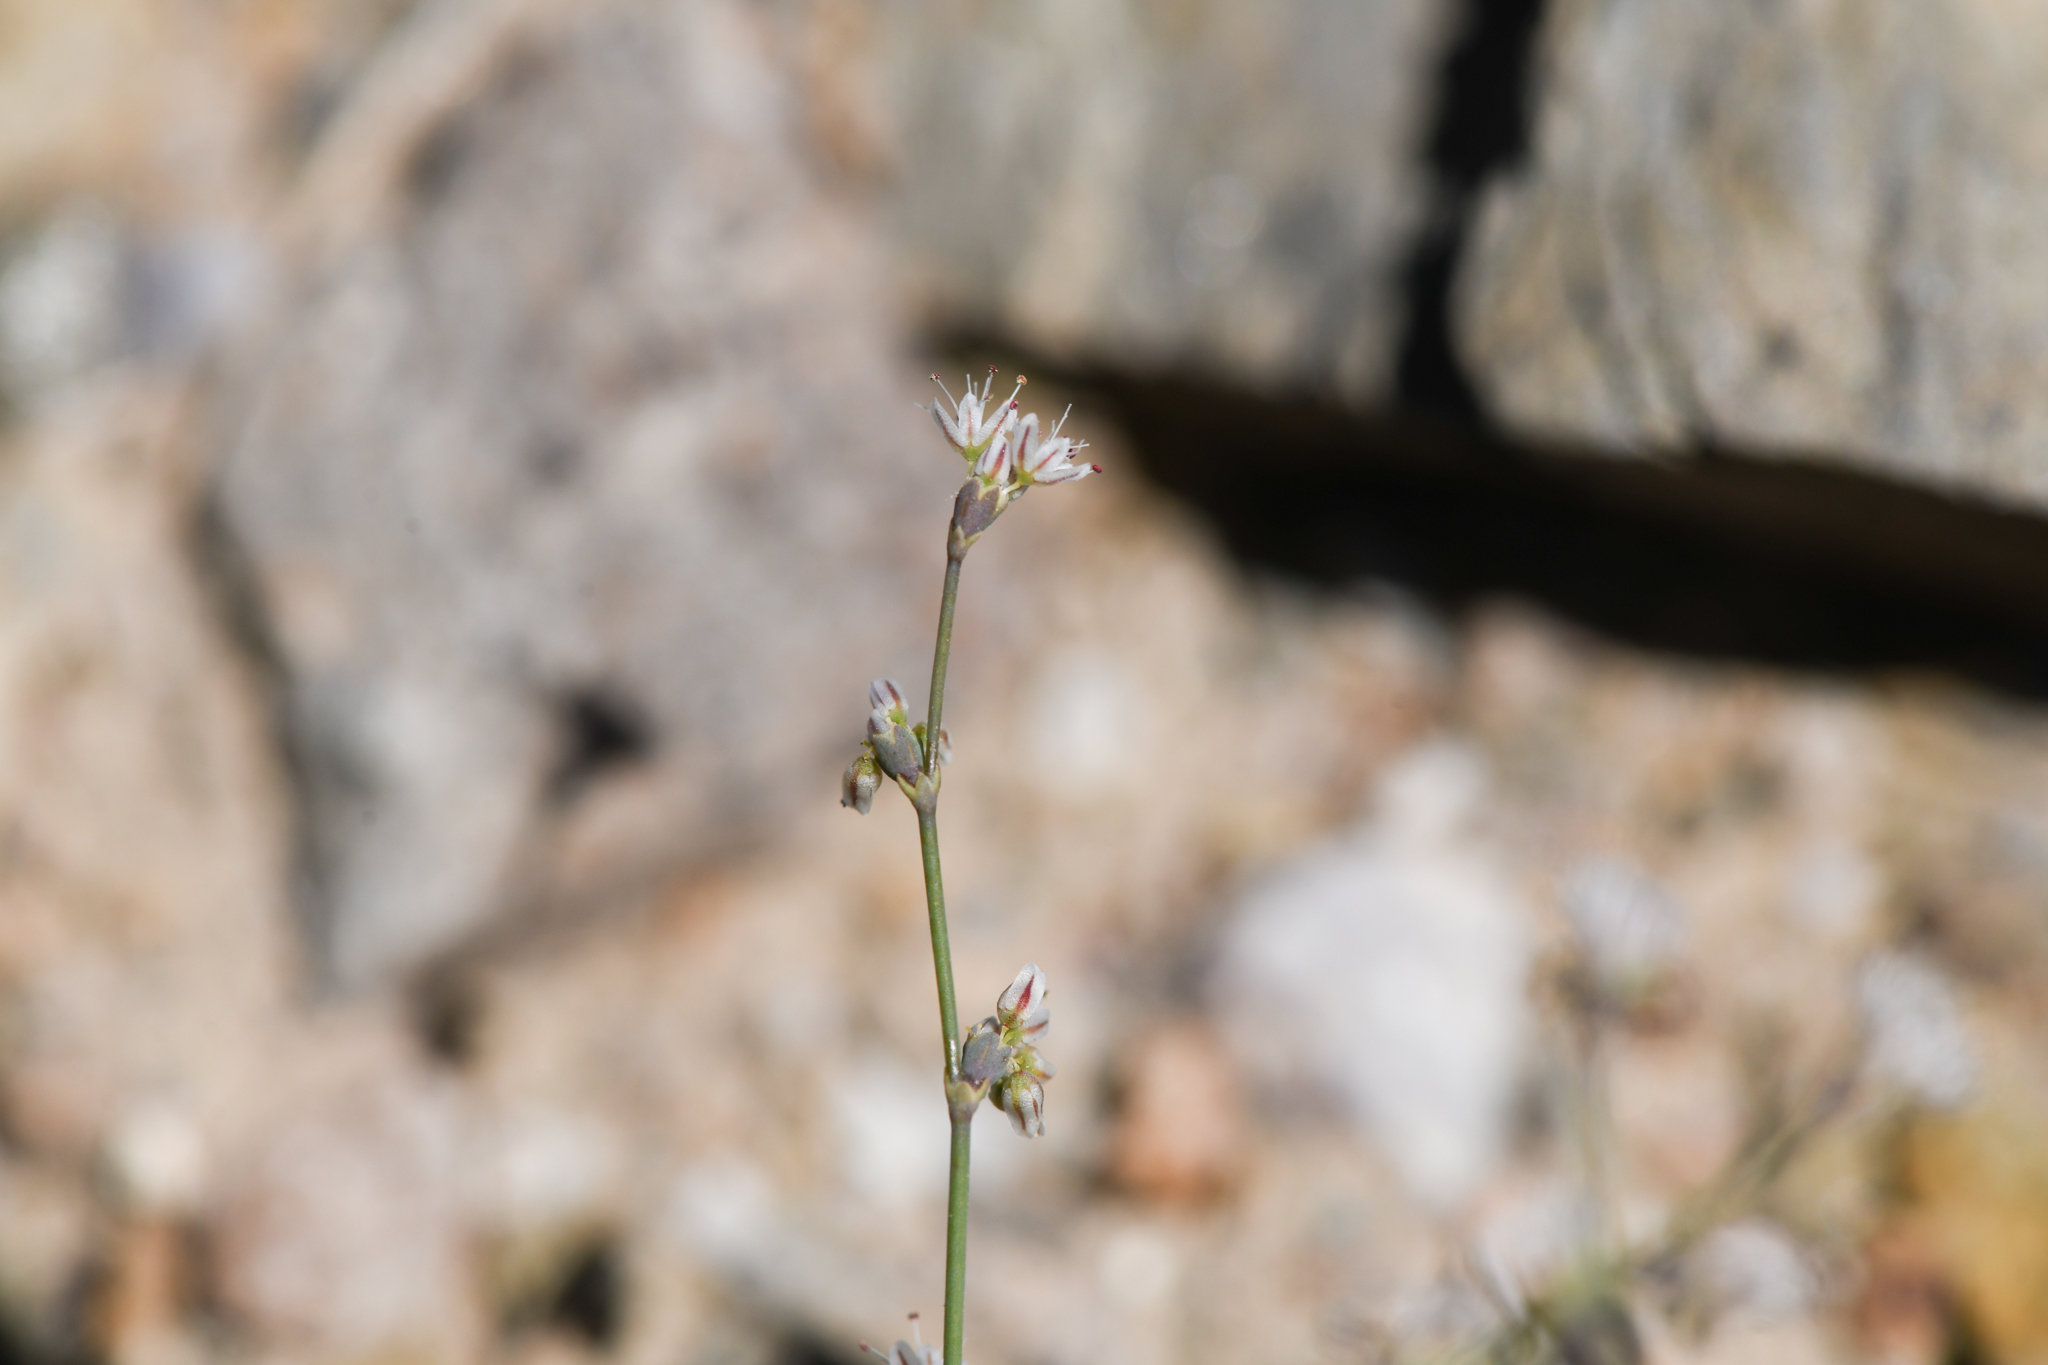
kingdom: Plantae
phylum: Tracheophyta
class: Magnoliopsida
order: Caryophyllales
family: Polygonaceae
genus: Eriogonum
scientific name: Eriogonum deflexum
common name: Skeleton-weed
